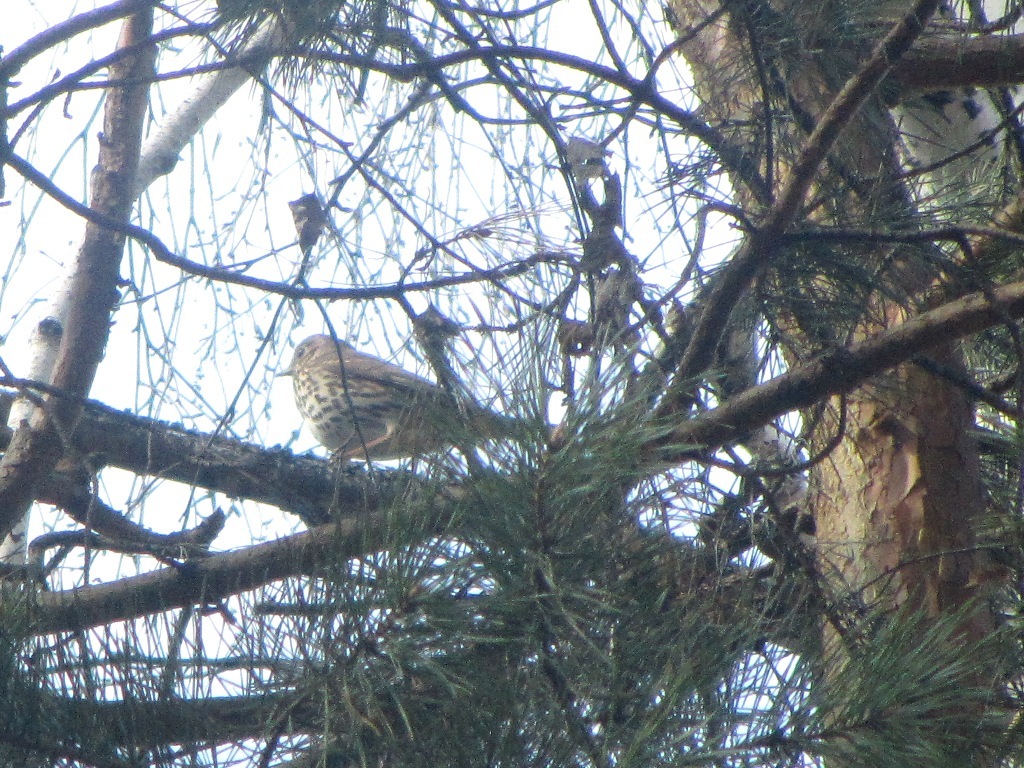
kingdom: Animalia
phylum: Chordata
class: Aves
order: Passeriformes
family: Turdidae
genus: Turdus
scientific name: Turdus philomelos
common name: Song thrush
